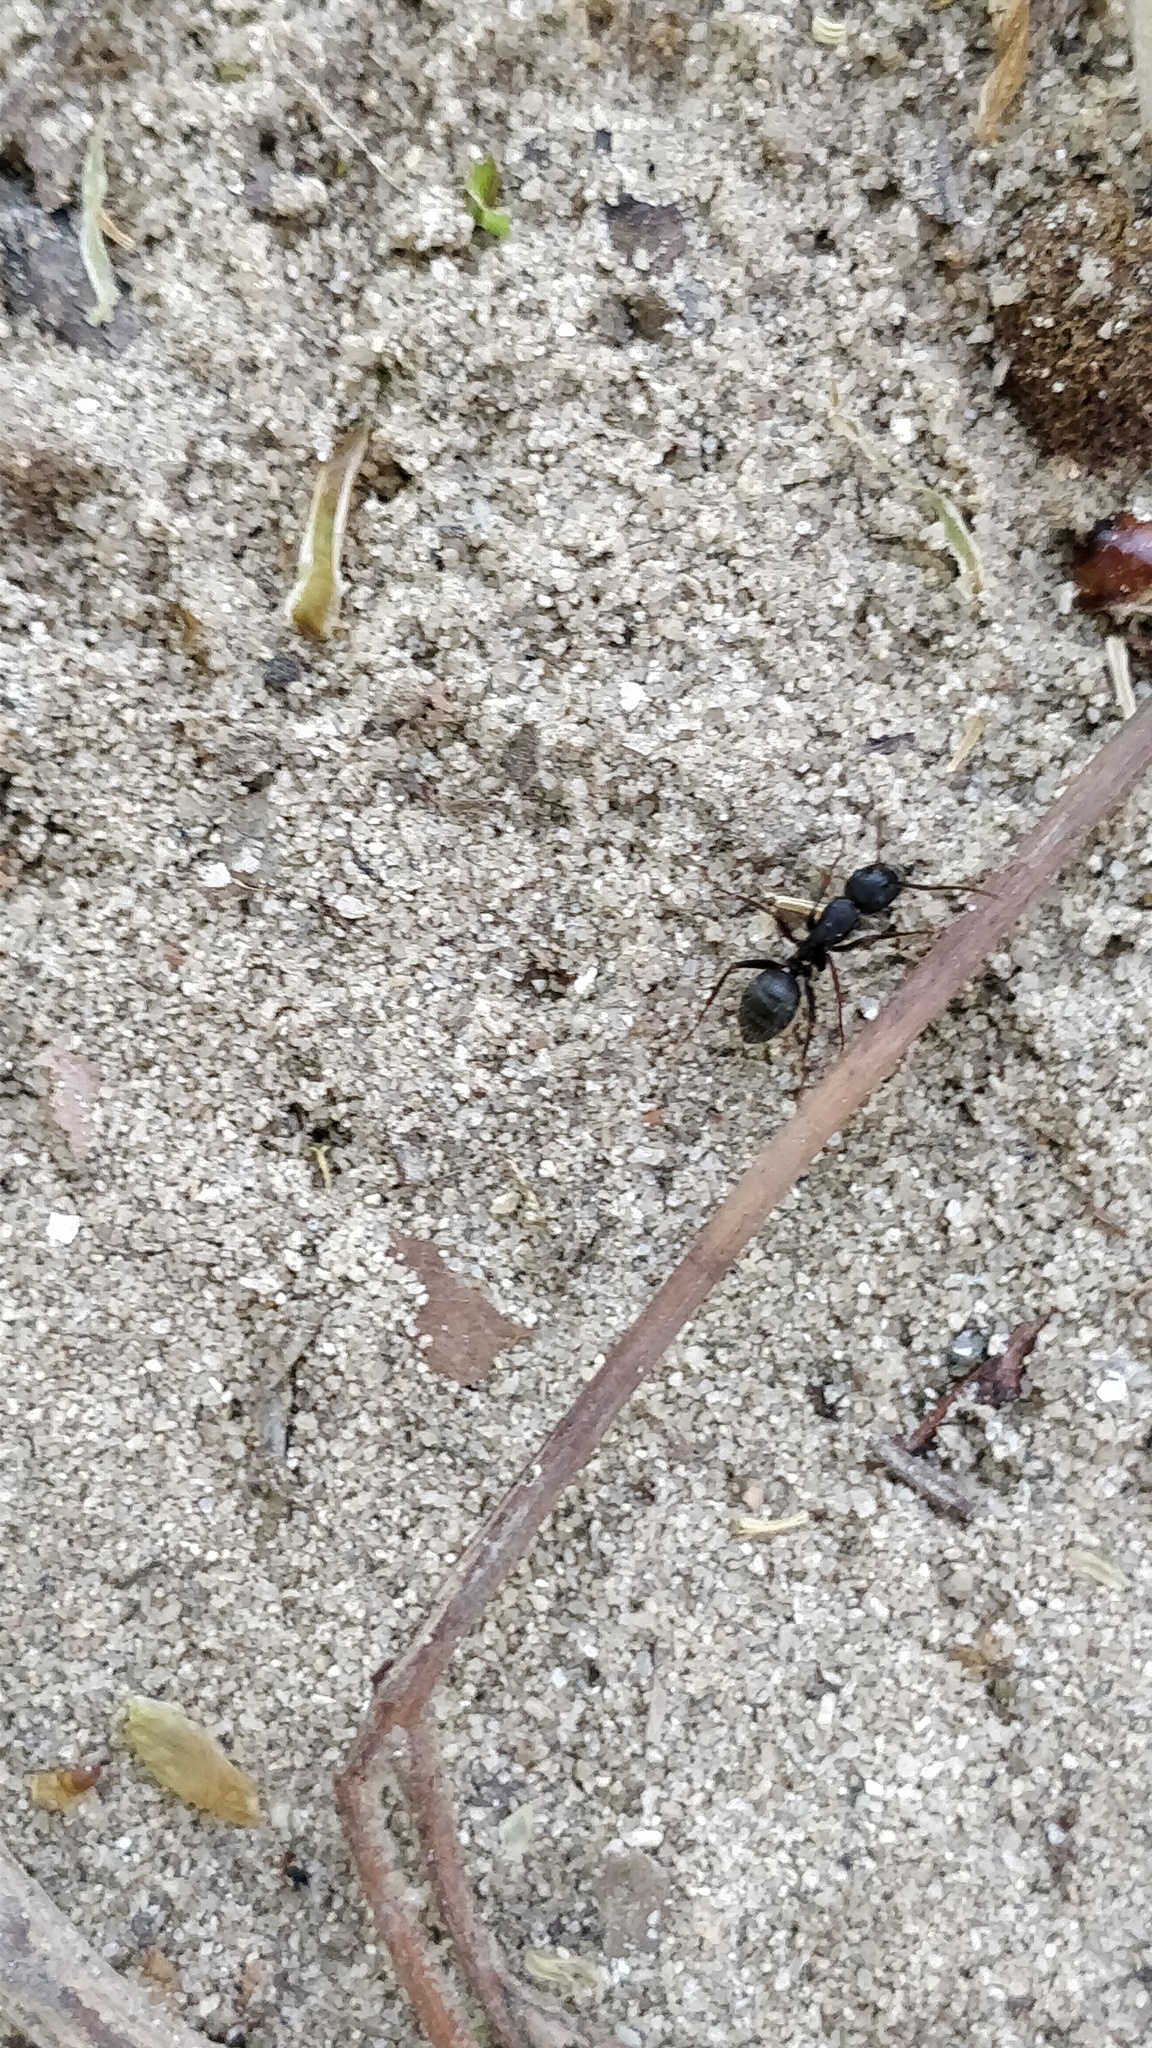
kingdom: Animalia
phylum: Arthropoda
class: Insecta
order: Hymenoptera
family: Formicidae
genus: Camponotus
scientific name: Camponotus pennsylvanicus
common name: Black carpenter ant
